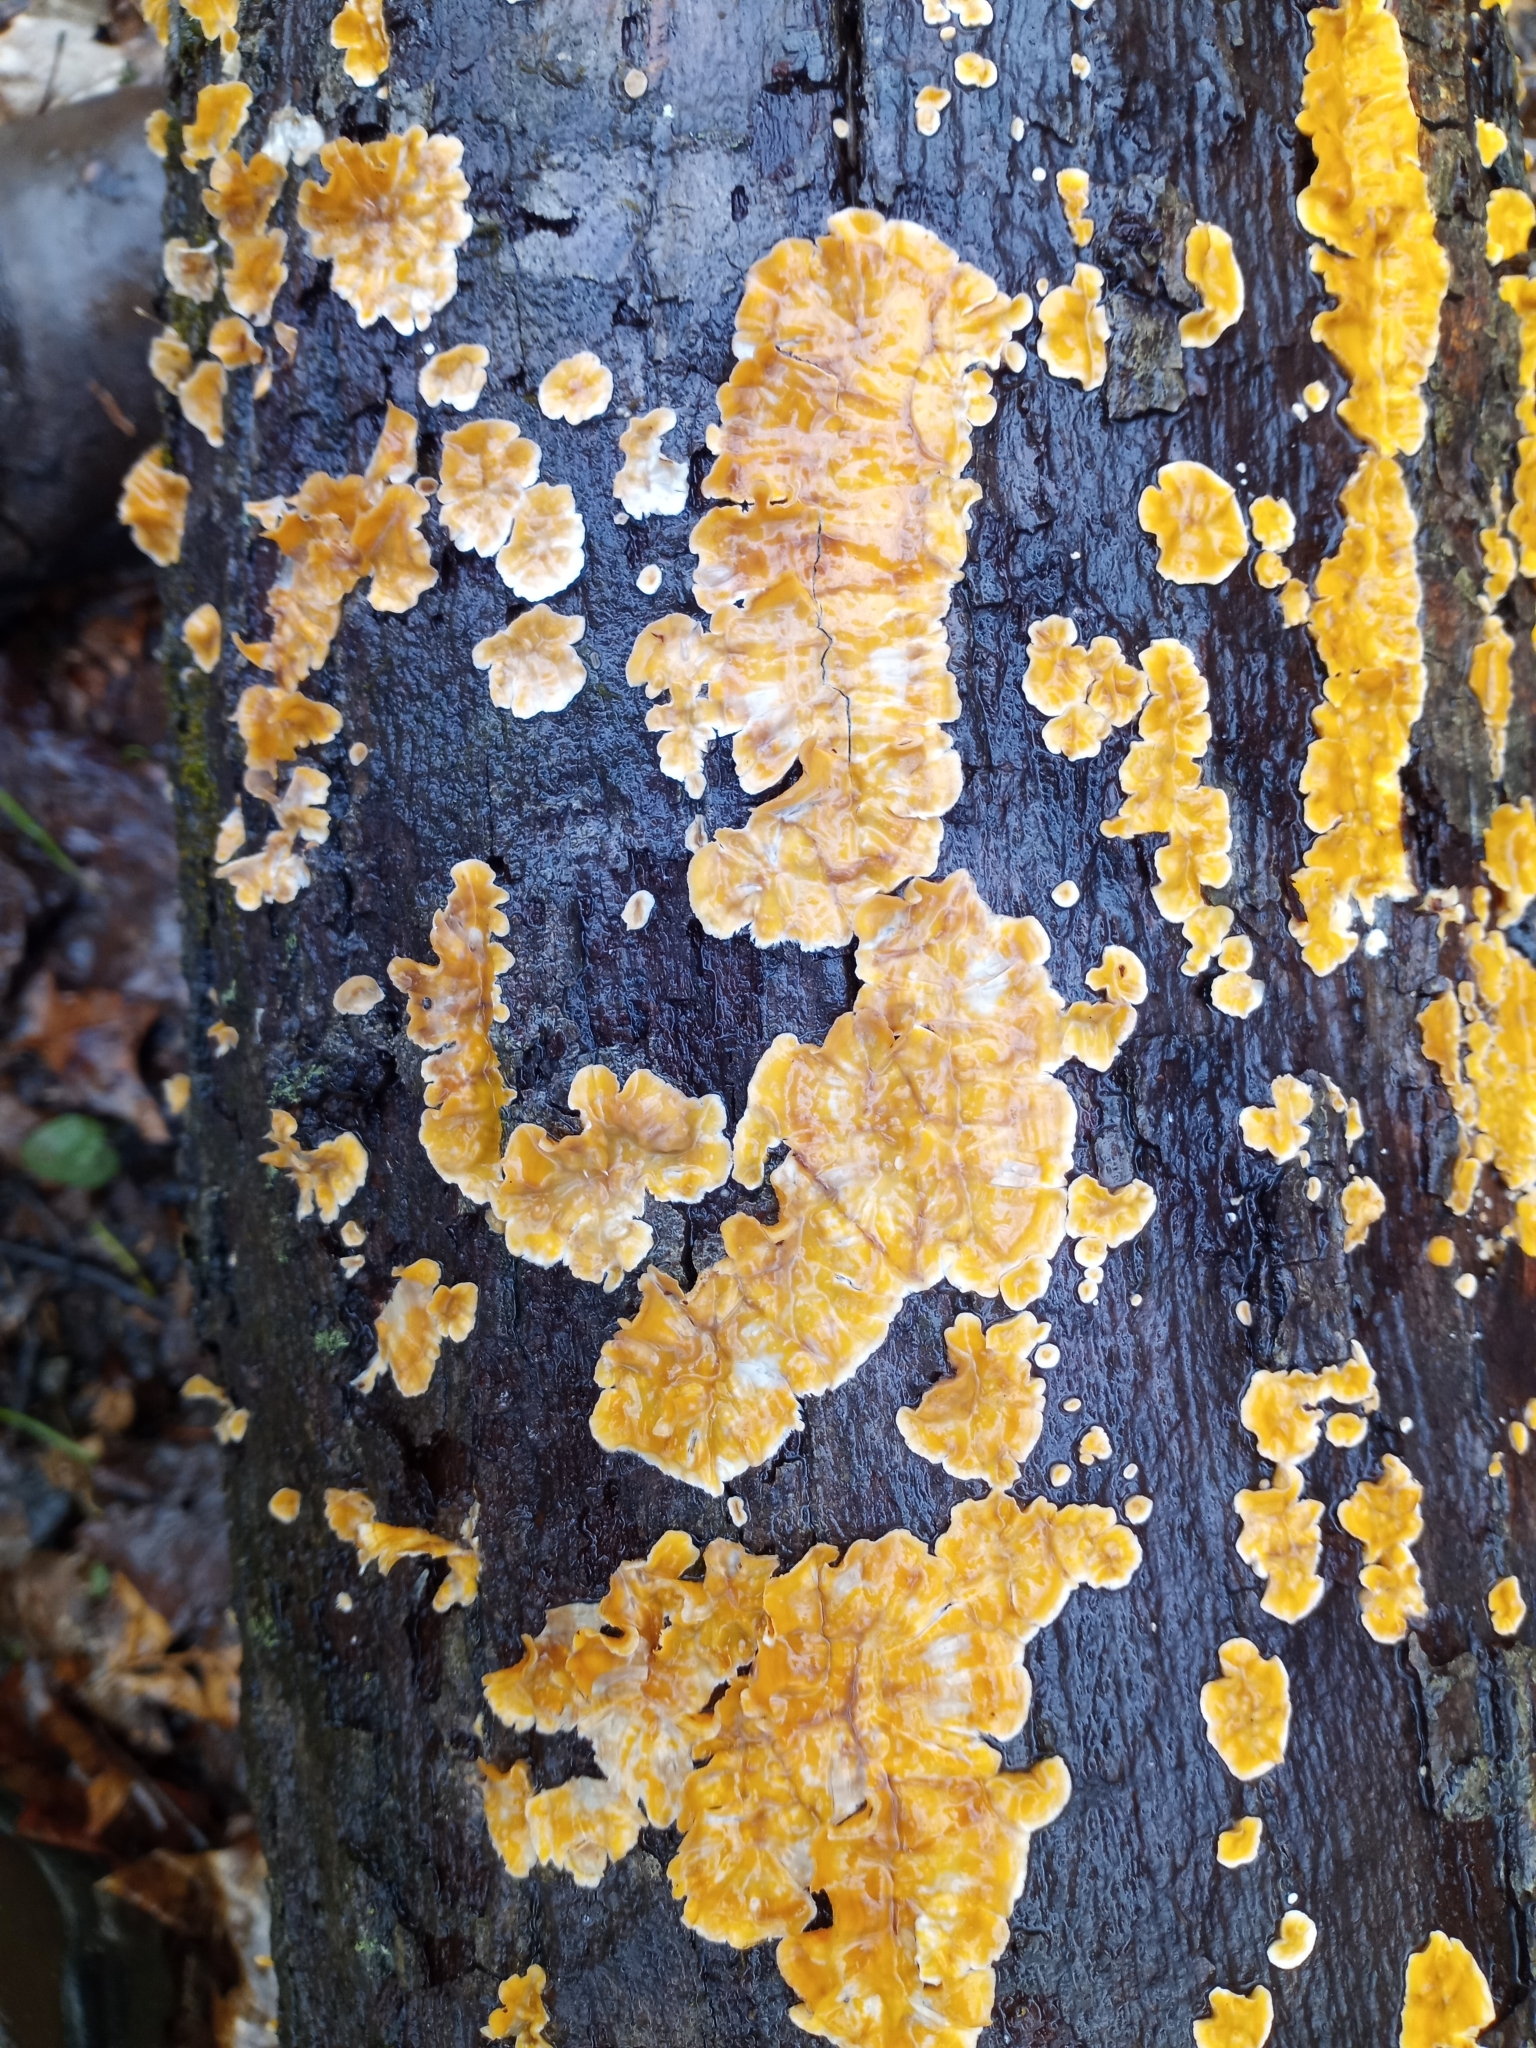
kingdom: Fungi
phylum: Basidiomycota
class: Agaricomycetes
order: Russulales
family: Stereaceae
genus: Stereum
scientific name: Stereum complicatum
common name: Crowded parchment
